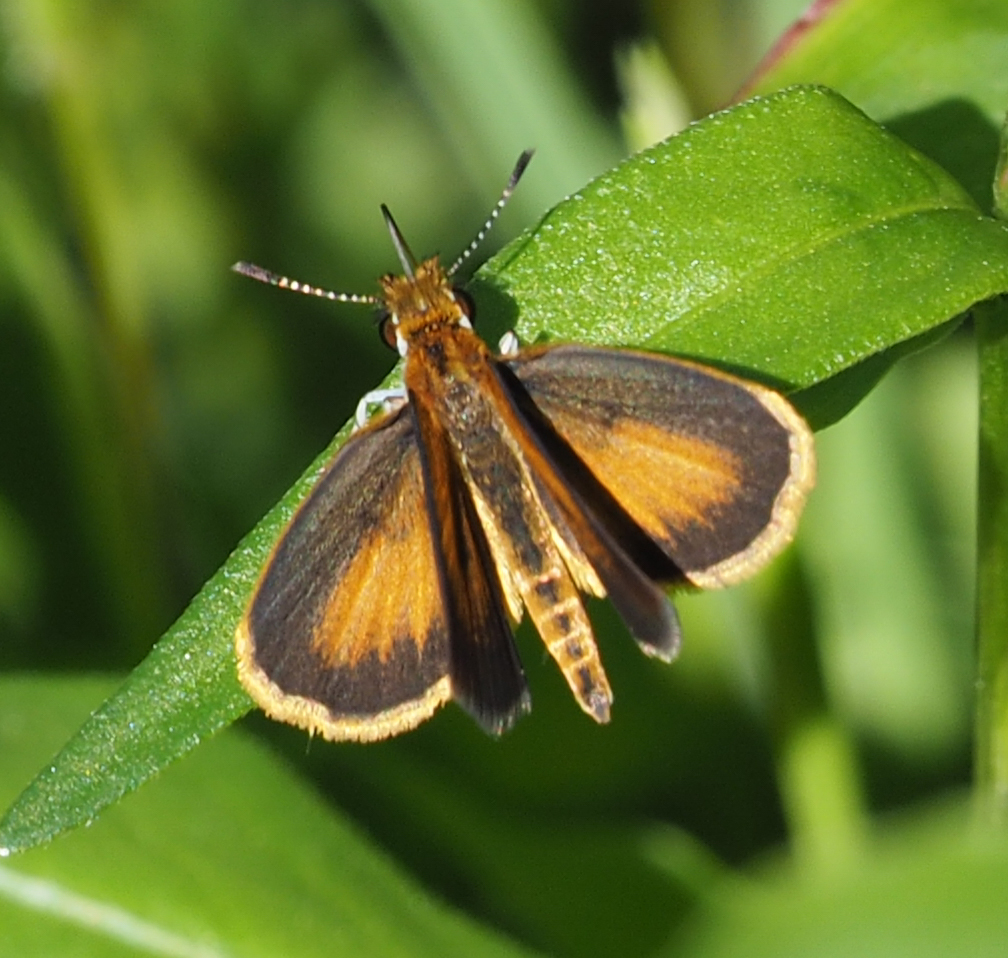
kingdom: Animalia
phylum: Arthropoda
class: Insecta
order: Lepidoptera
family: Hesperiidae
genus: Ancyloxypha
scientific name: Ancyloxypha numitor
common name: Least skipper
